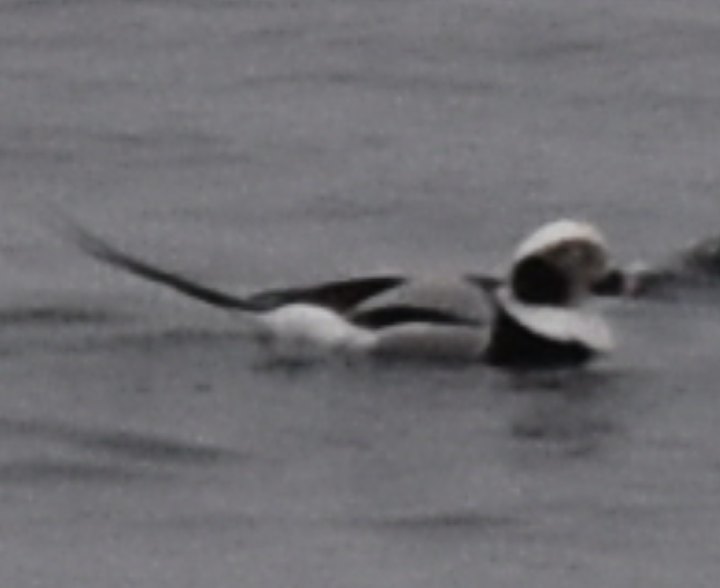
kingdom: Animalia
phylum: Chordata
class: Aves
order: Anseriformes
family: Anatidae
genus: Clangula
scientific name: Clangula hyemalis
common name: Long-tailed duck
